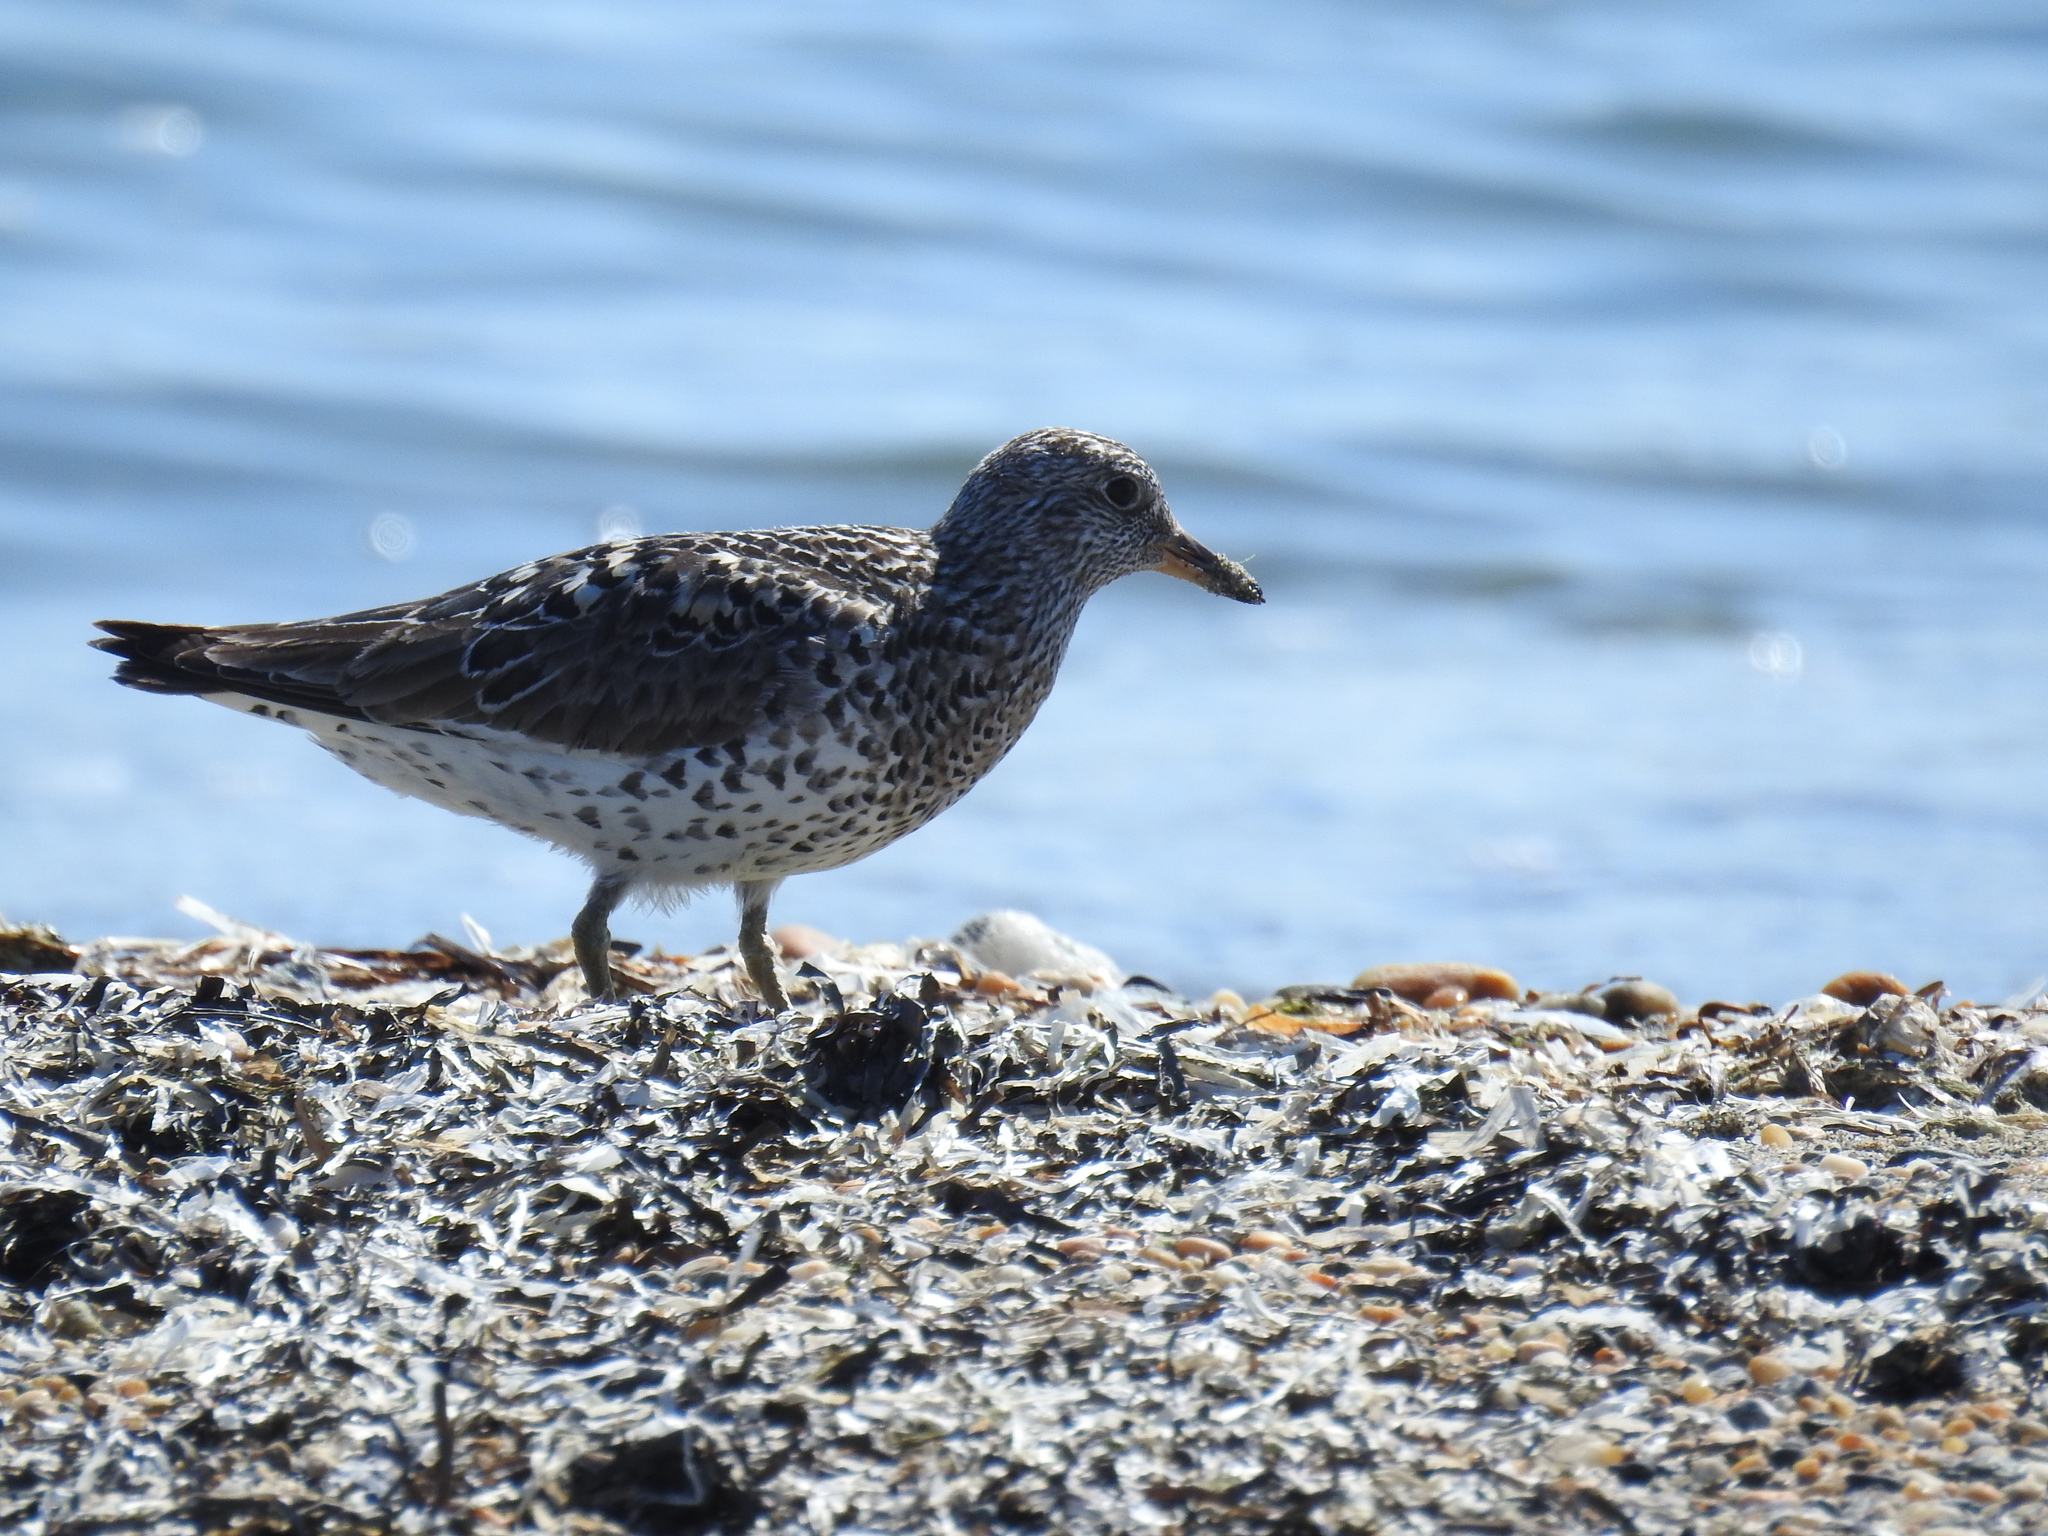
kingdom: Animalia
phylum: Chordata
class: Aves
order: Charadriiformes
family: Scolopacidae
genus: Calidris
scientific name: Calidris virgata
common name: Surfbird
